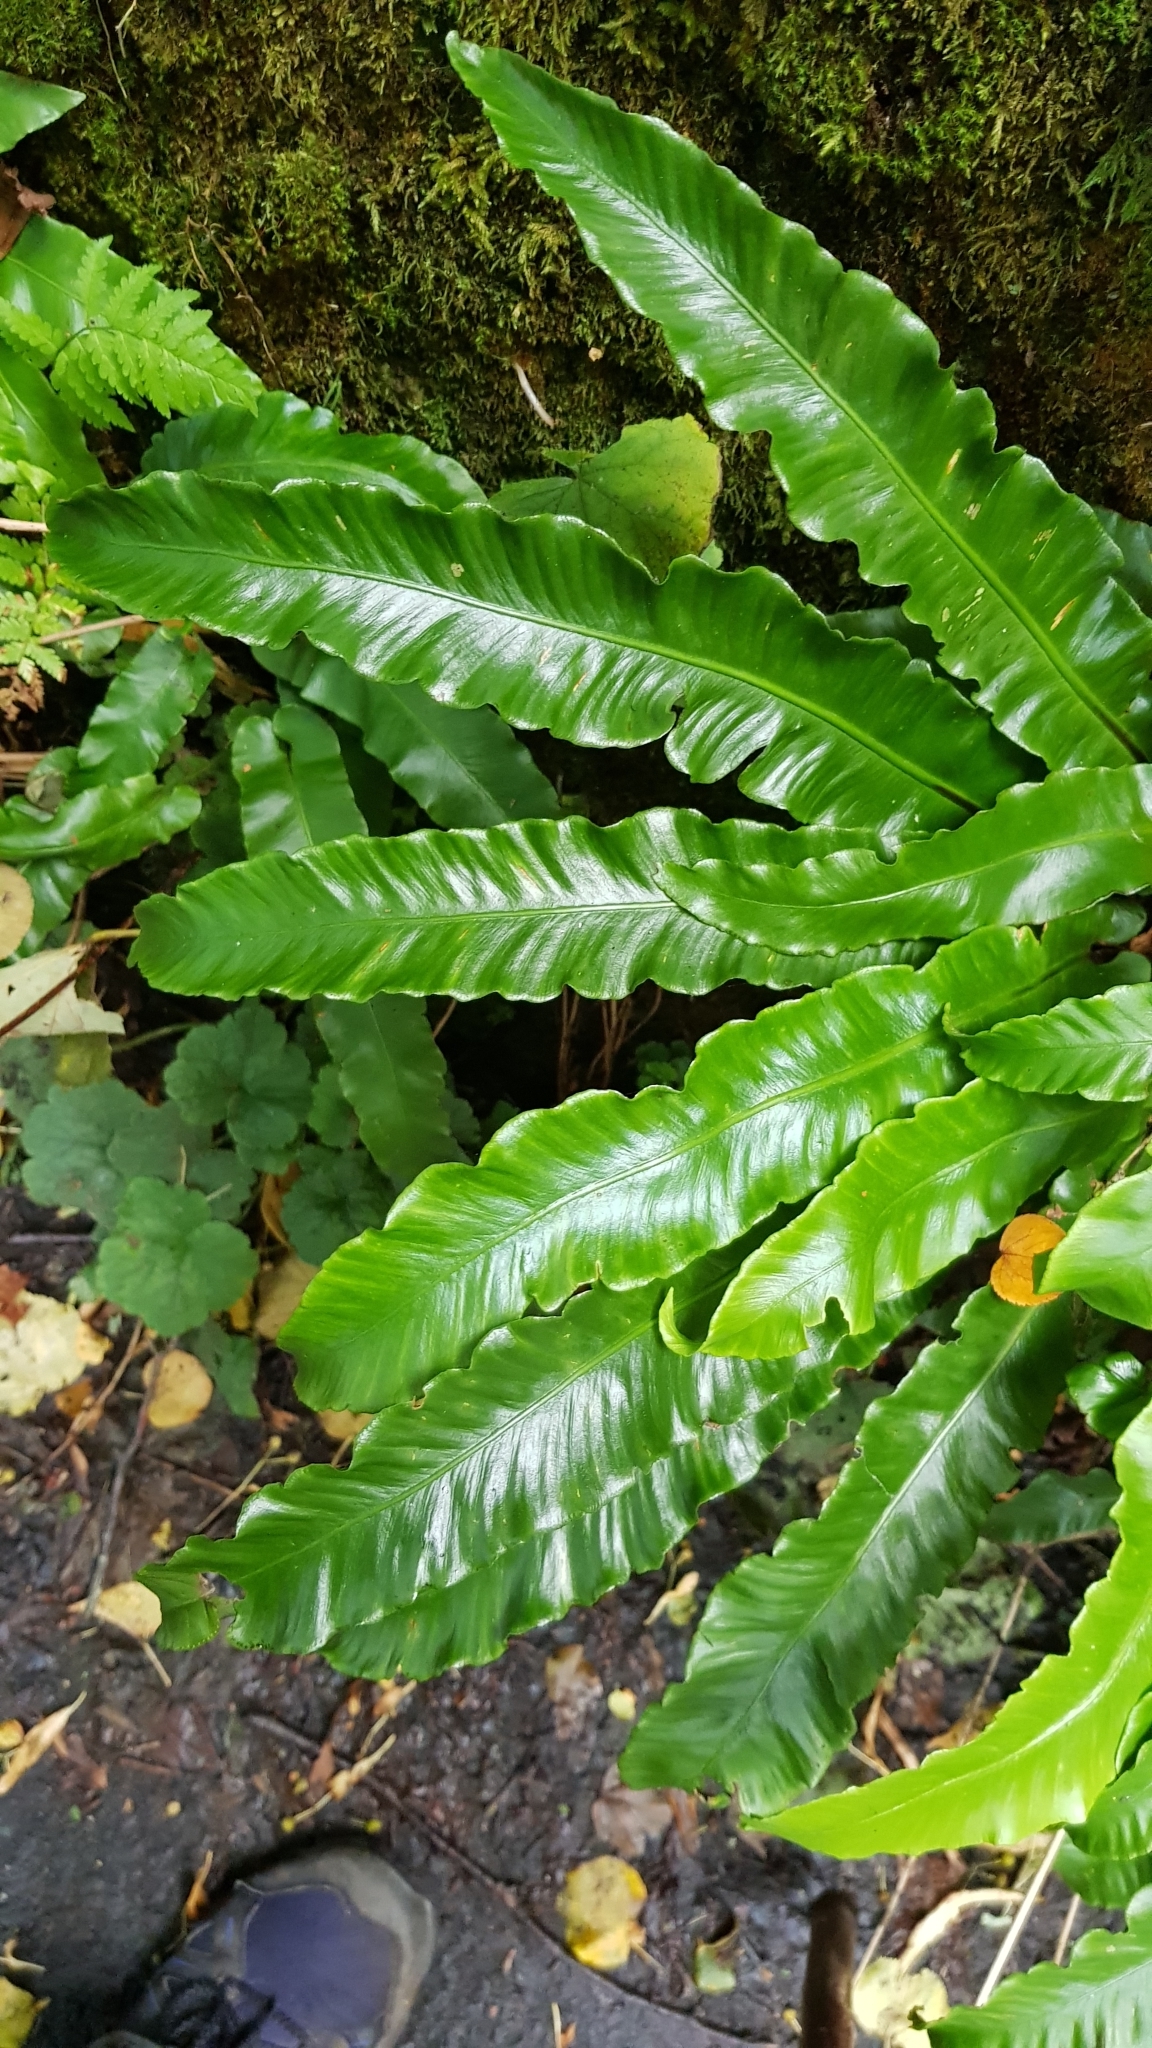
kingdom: Plantae
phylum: Tracheophyta
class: Polypodiopsida
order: Polypodiales
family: Aspleniaceae
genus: Asplenium
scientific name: Asplenium scolopendrium
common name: Hart's-tongue fern
